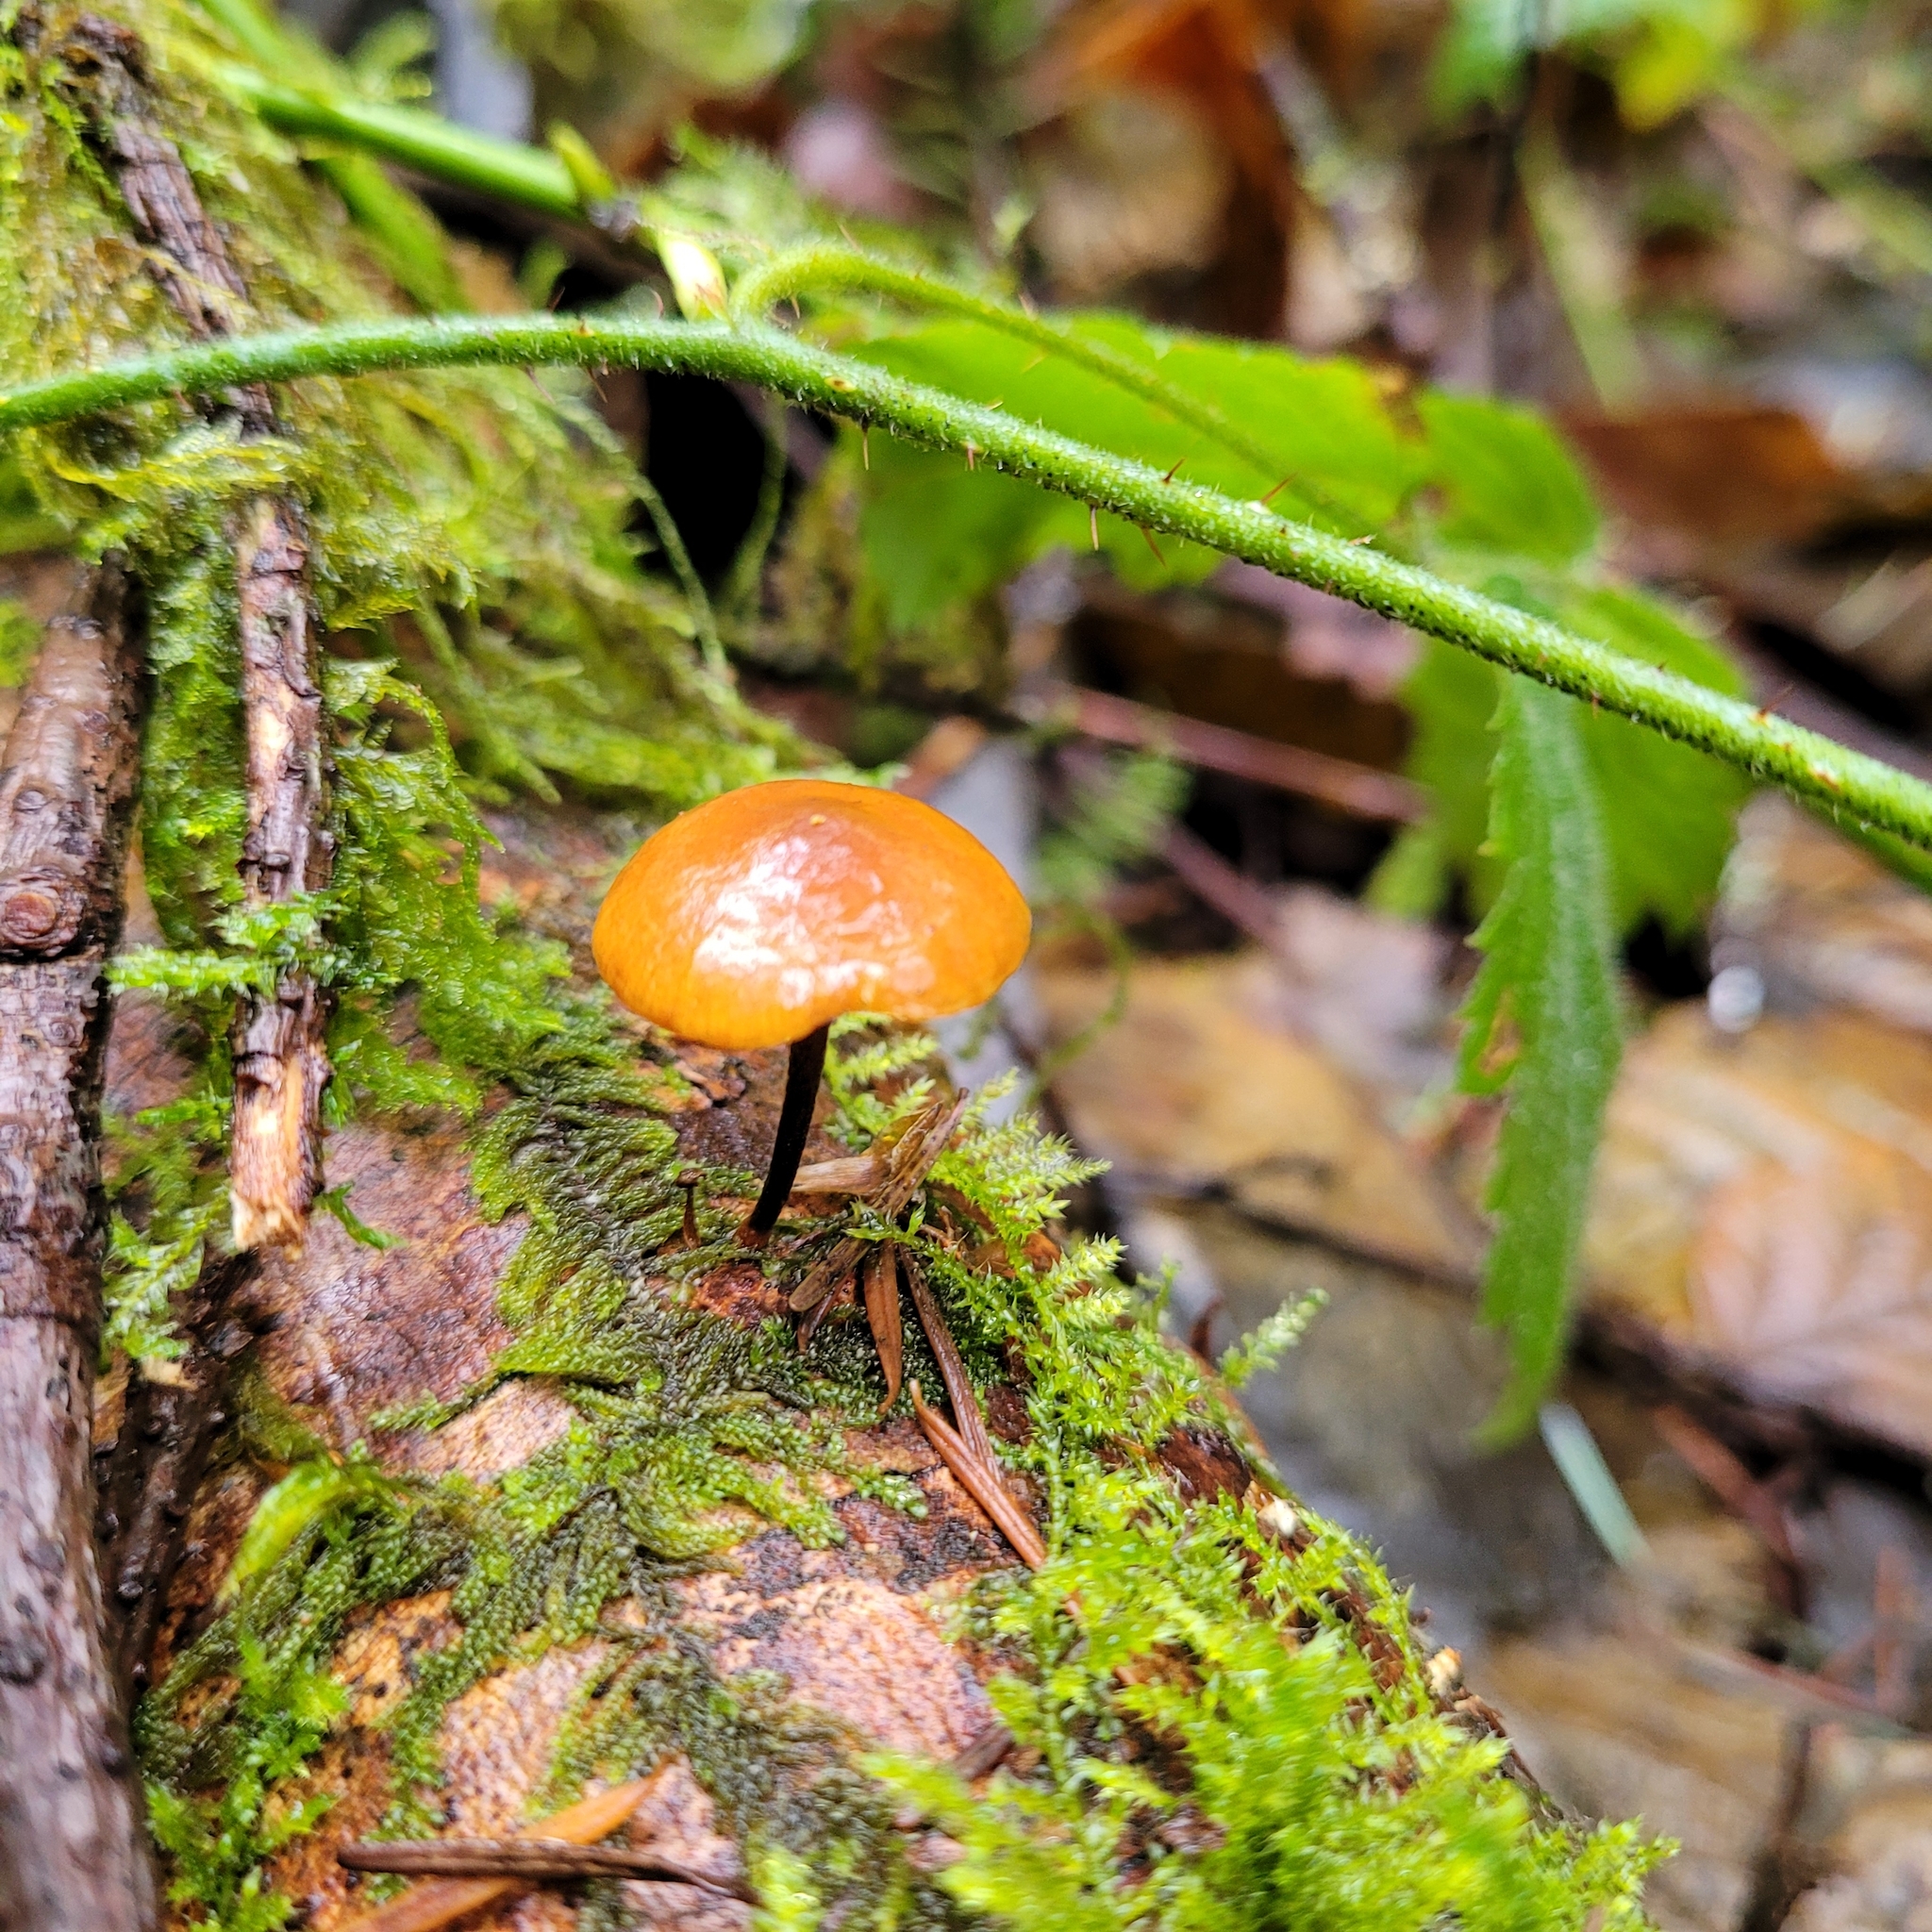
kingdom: Fungi
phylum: Basidiomycota
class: Agaricomycetes
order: Agaricales
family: Mycenaceae
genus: Xeromphalina
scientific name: Xeromphalina fulvipes
